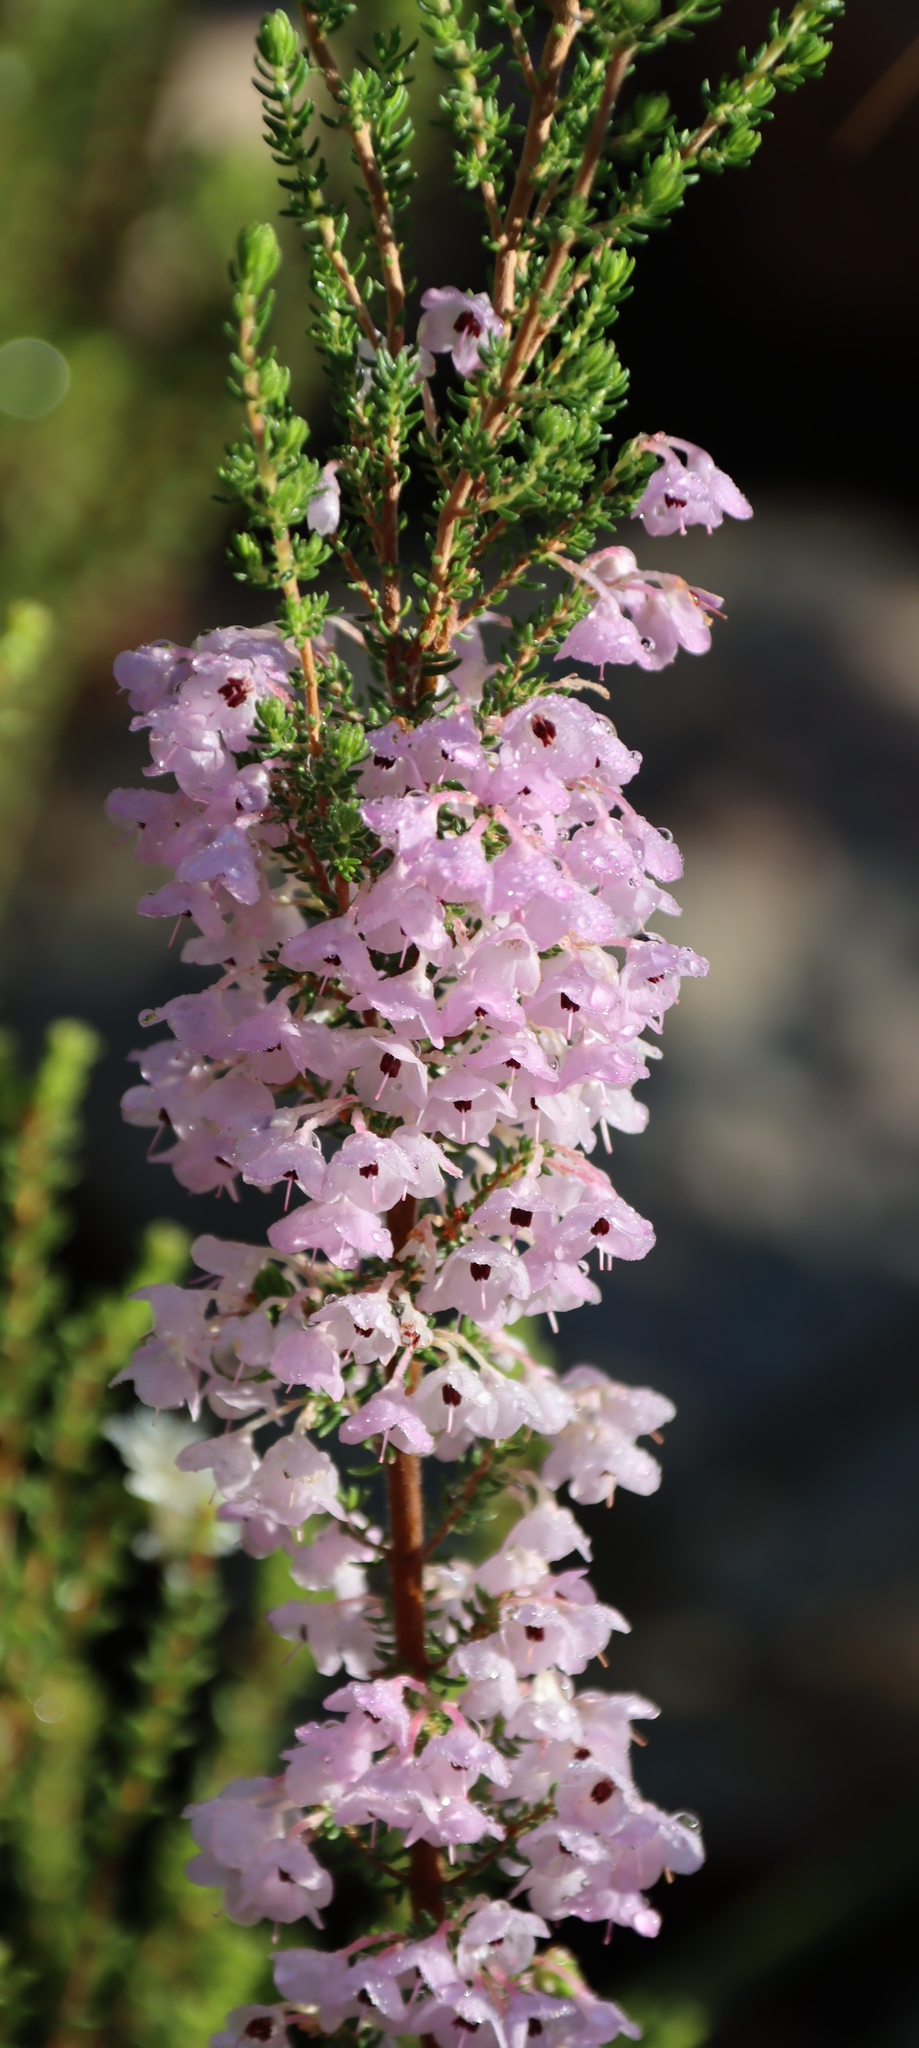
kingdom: Plantae
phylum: Tracheophyta
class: Magnoliopsida
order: Ericales
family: Ericaceae
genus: Erica
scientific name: Erica melanthera
